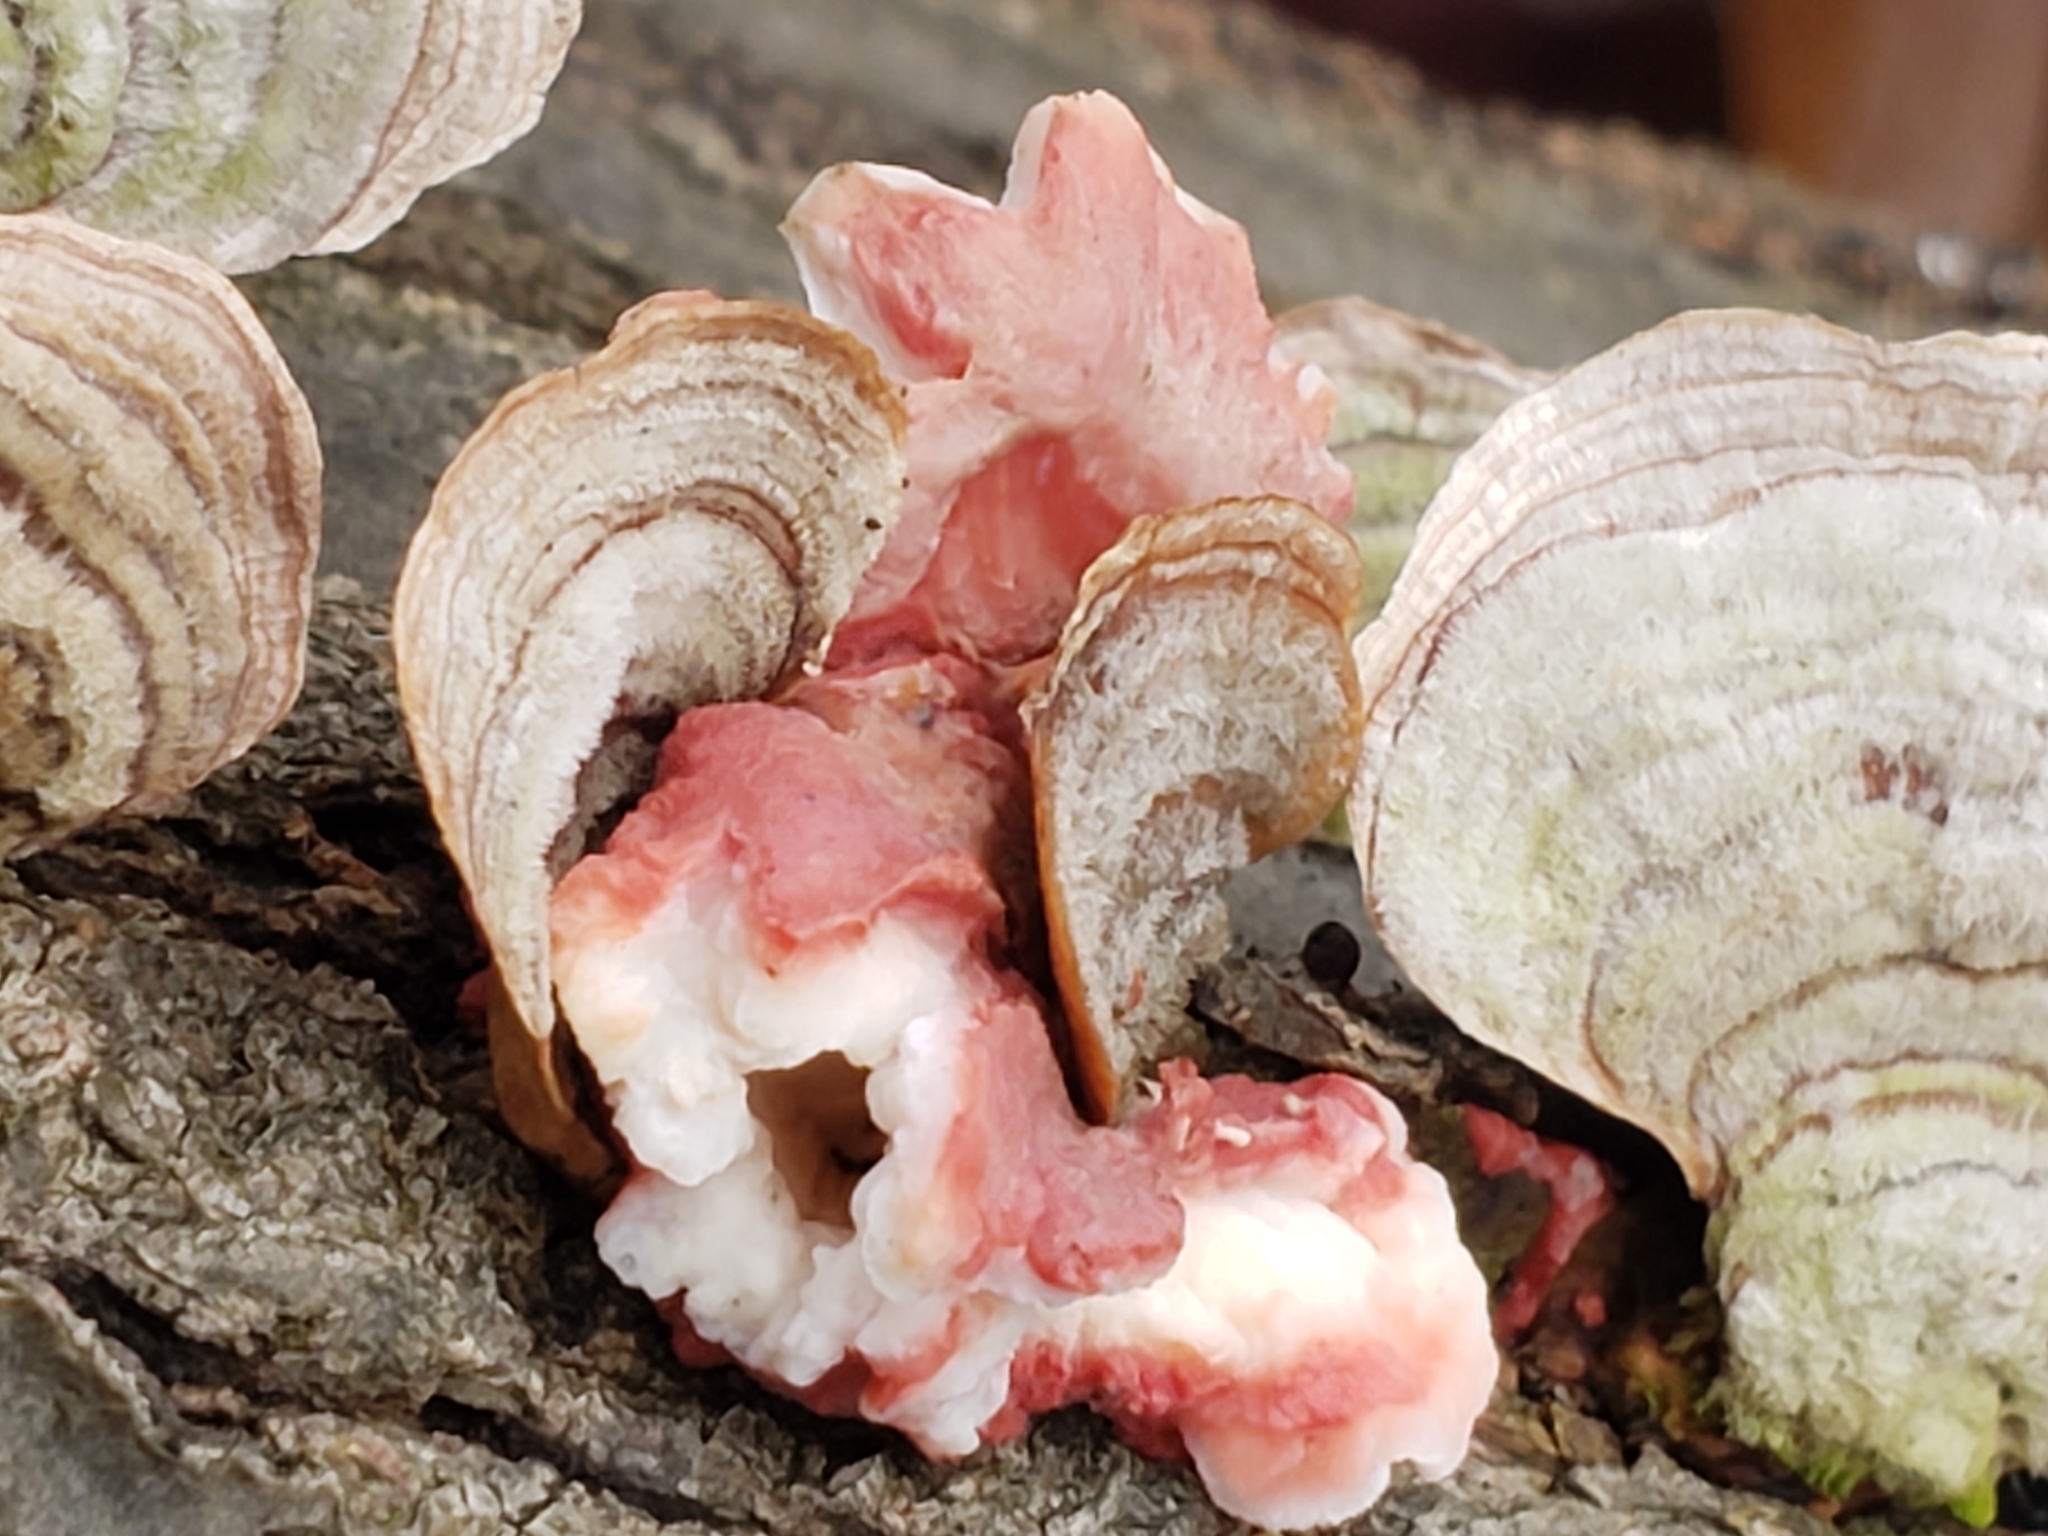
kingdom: Fungi
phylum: Basidiomycota
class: Agaricomycetes
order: Polyporales
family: Irpicaceae
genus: Byssomerulius
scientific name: Byssomerulius incarnatus
